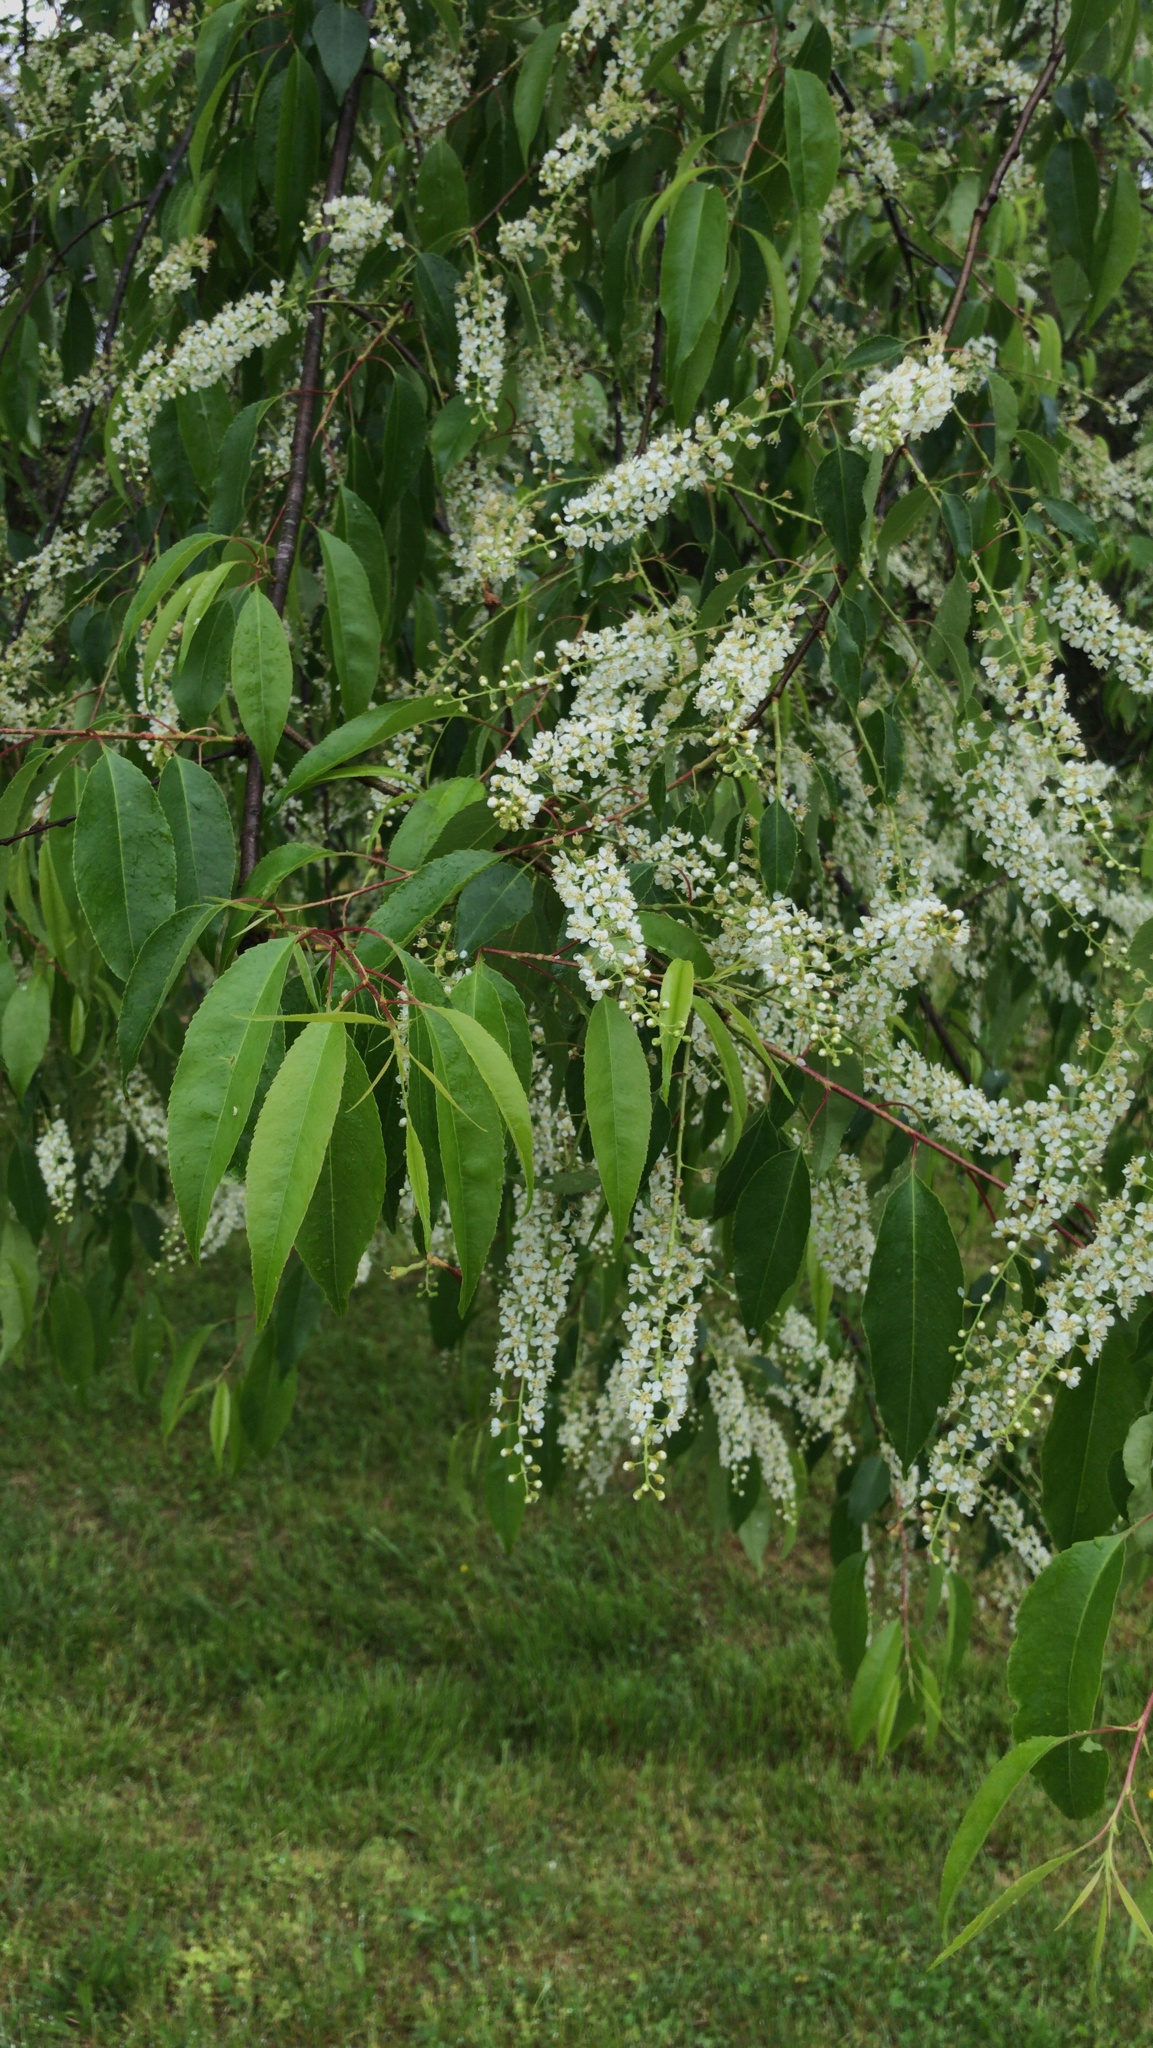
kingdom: Plantae
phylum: Tracheophyta
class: Magnoliopsida
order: Rosales
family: Rosaceae
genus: Prunus
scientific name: Prunus serotina
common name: Black cherry
